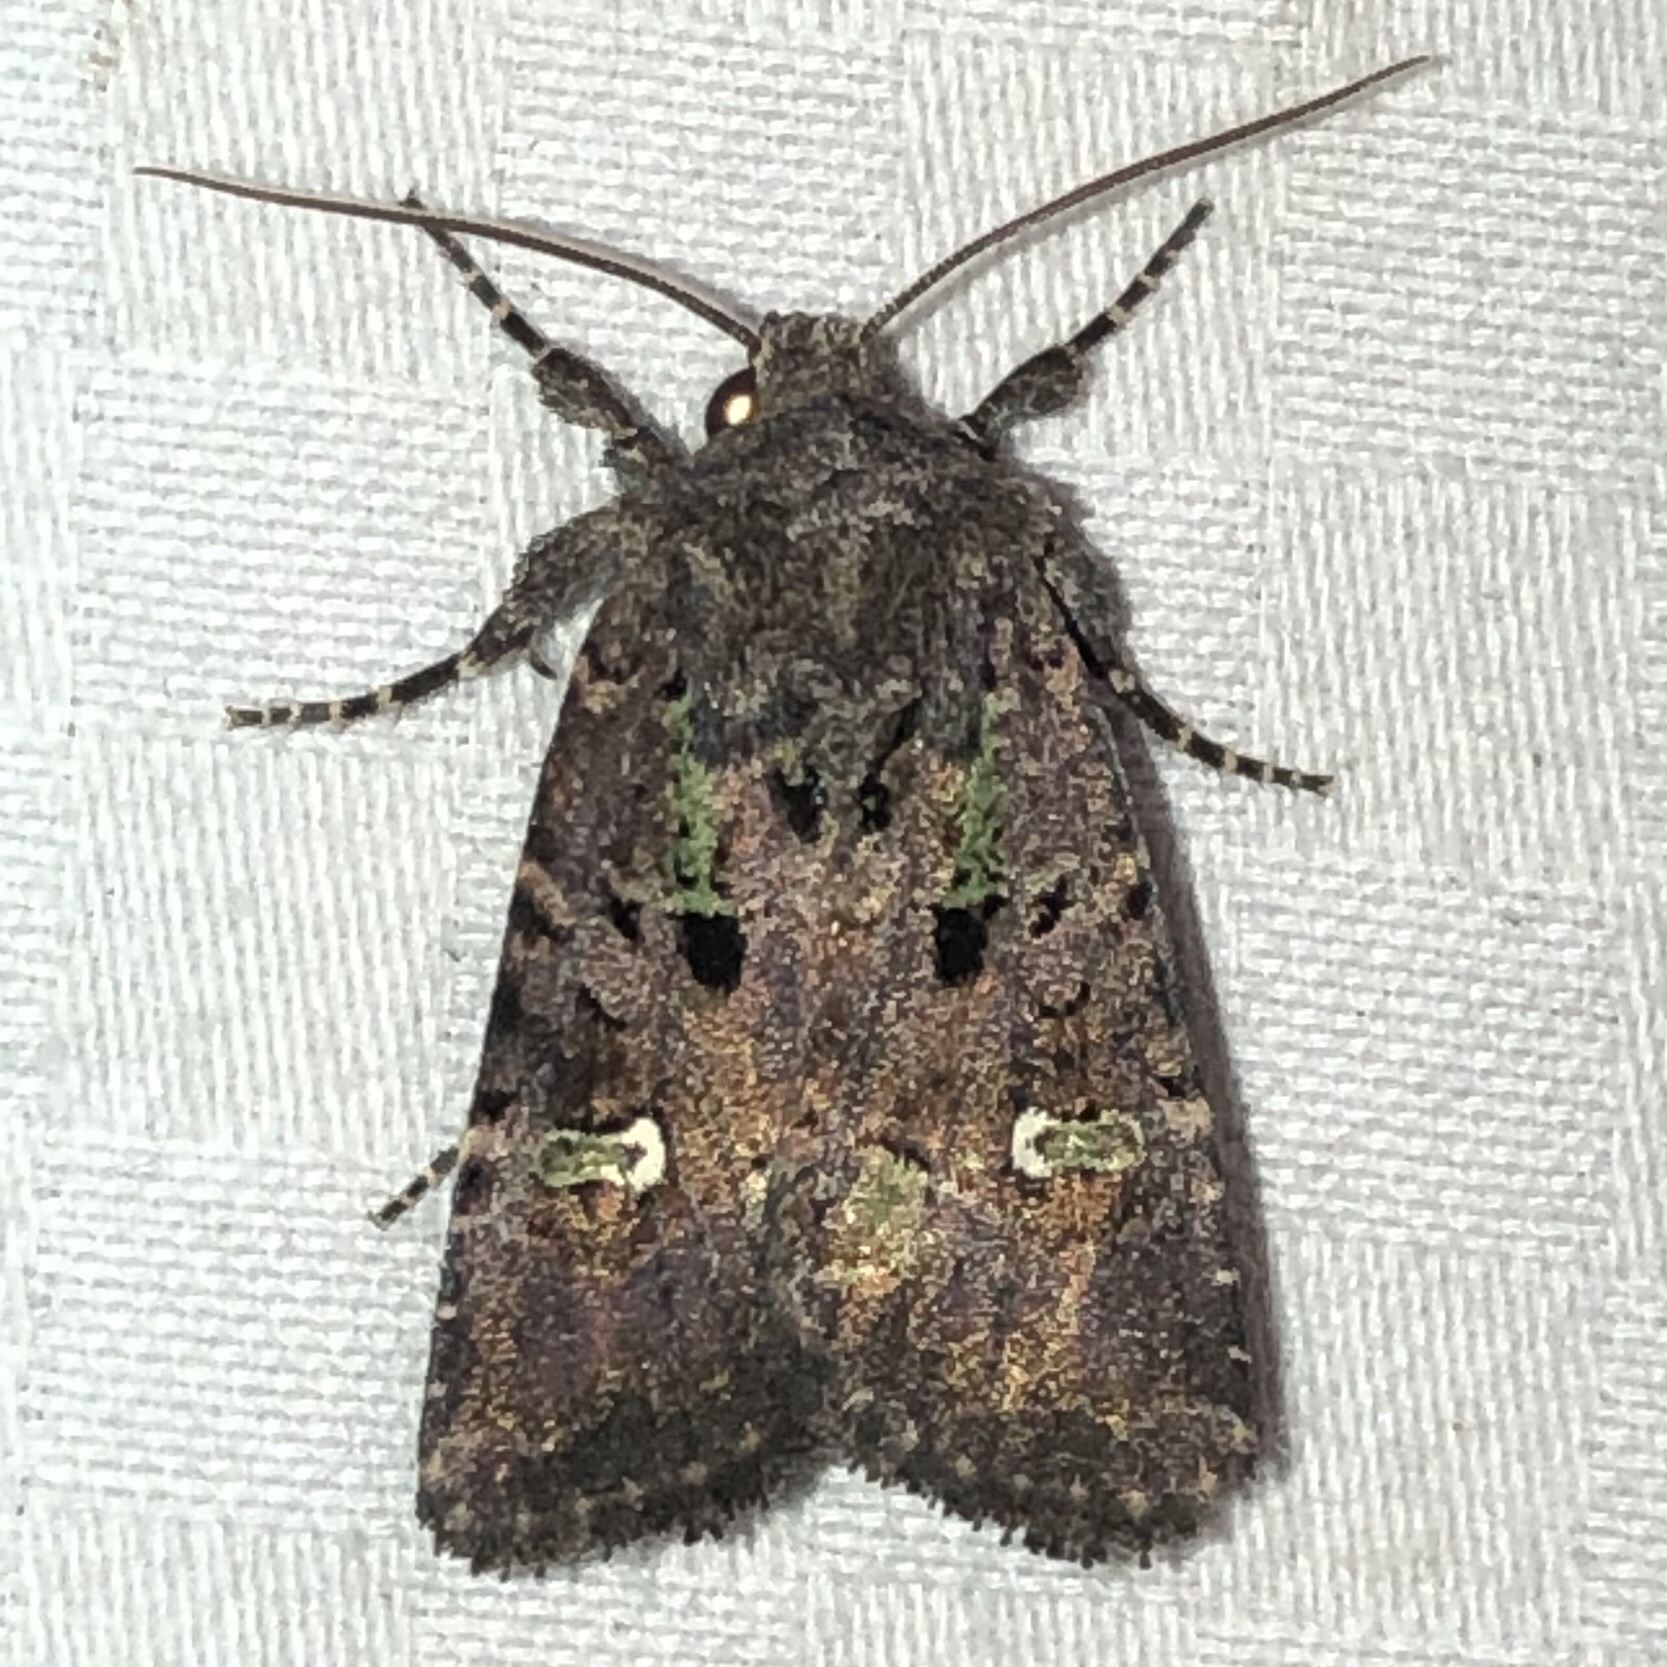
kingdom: Animalia
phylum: Arthropoda
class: Insecta
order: Lepidoptera
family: Noctuidae
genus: Lacinipolia
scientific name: Lacinipolia renigera
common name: Kidney-spotted minor
